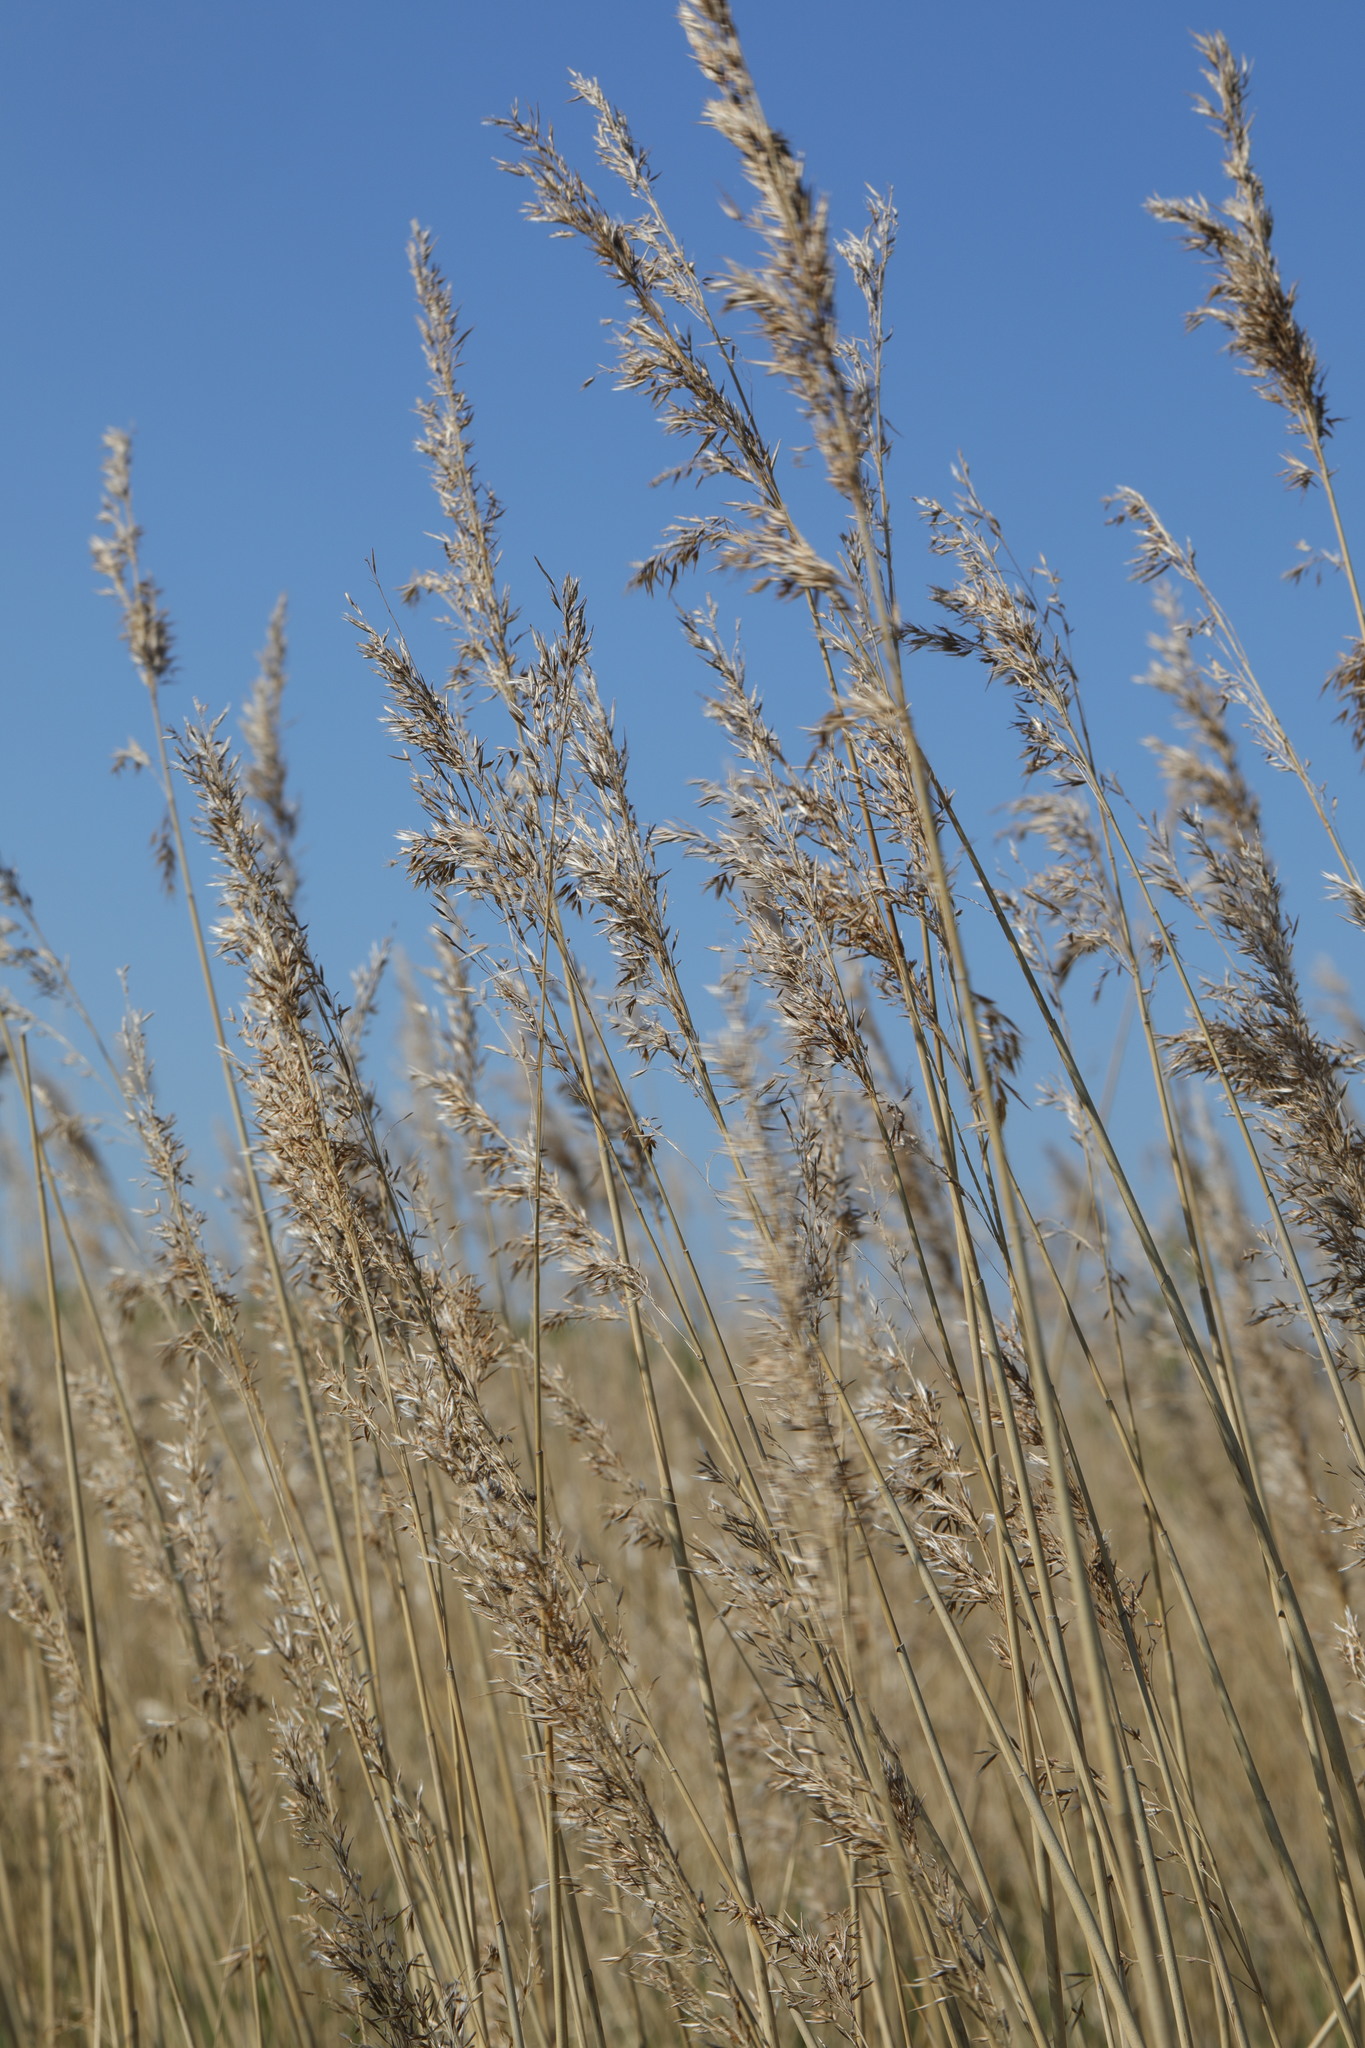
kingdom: Plantae
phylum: Tracheophyta
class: Liliopsida
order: Poales
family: Poaceae
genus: Phragmites
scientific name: Phragmites australis
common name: Common reed
